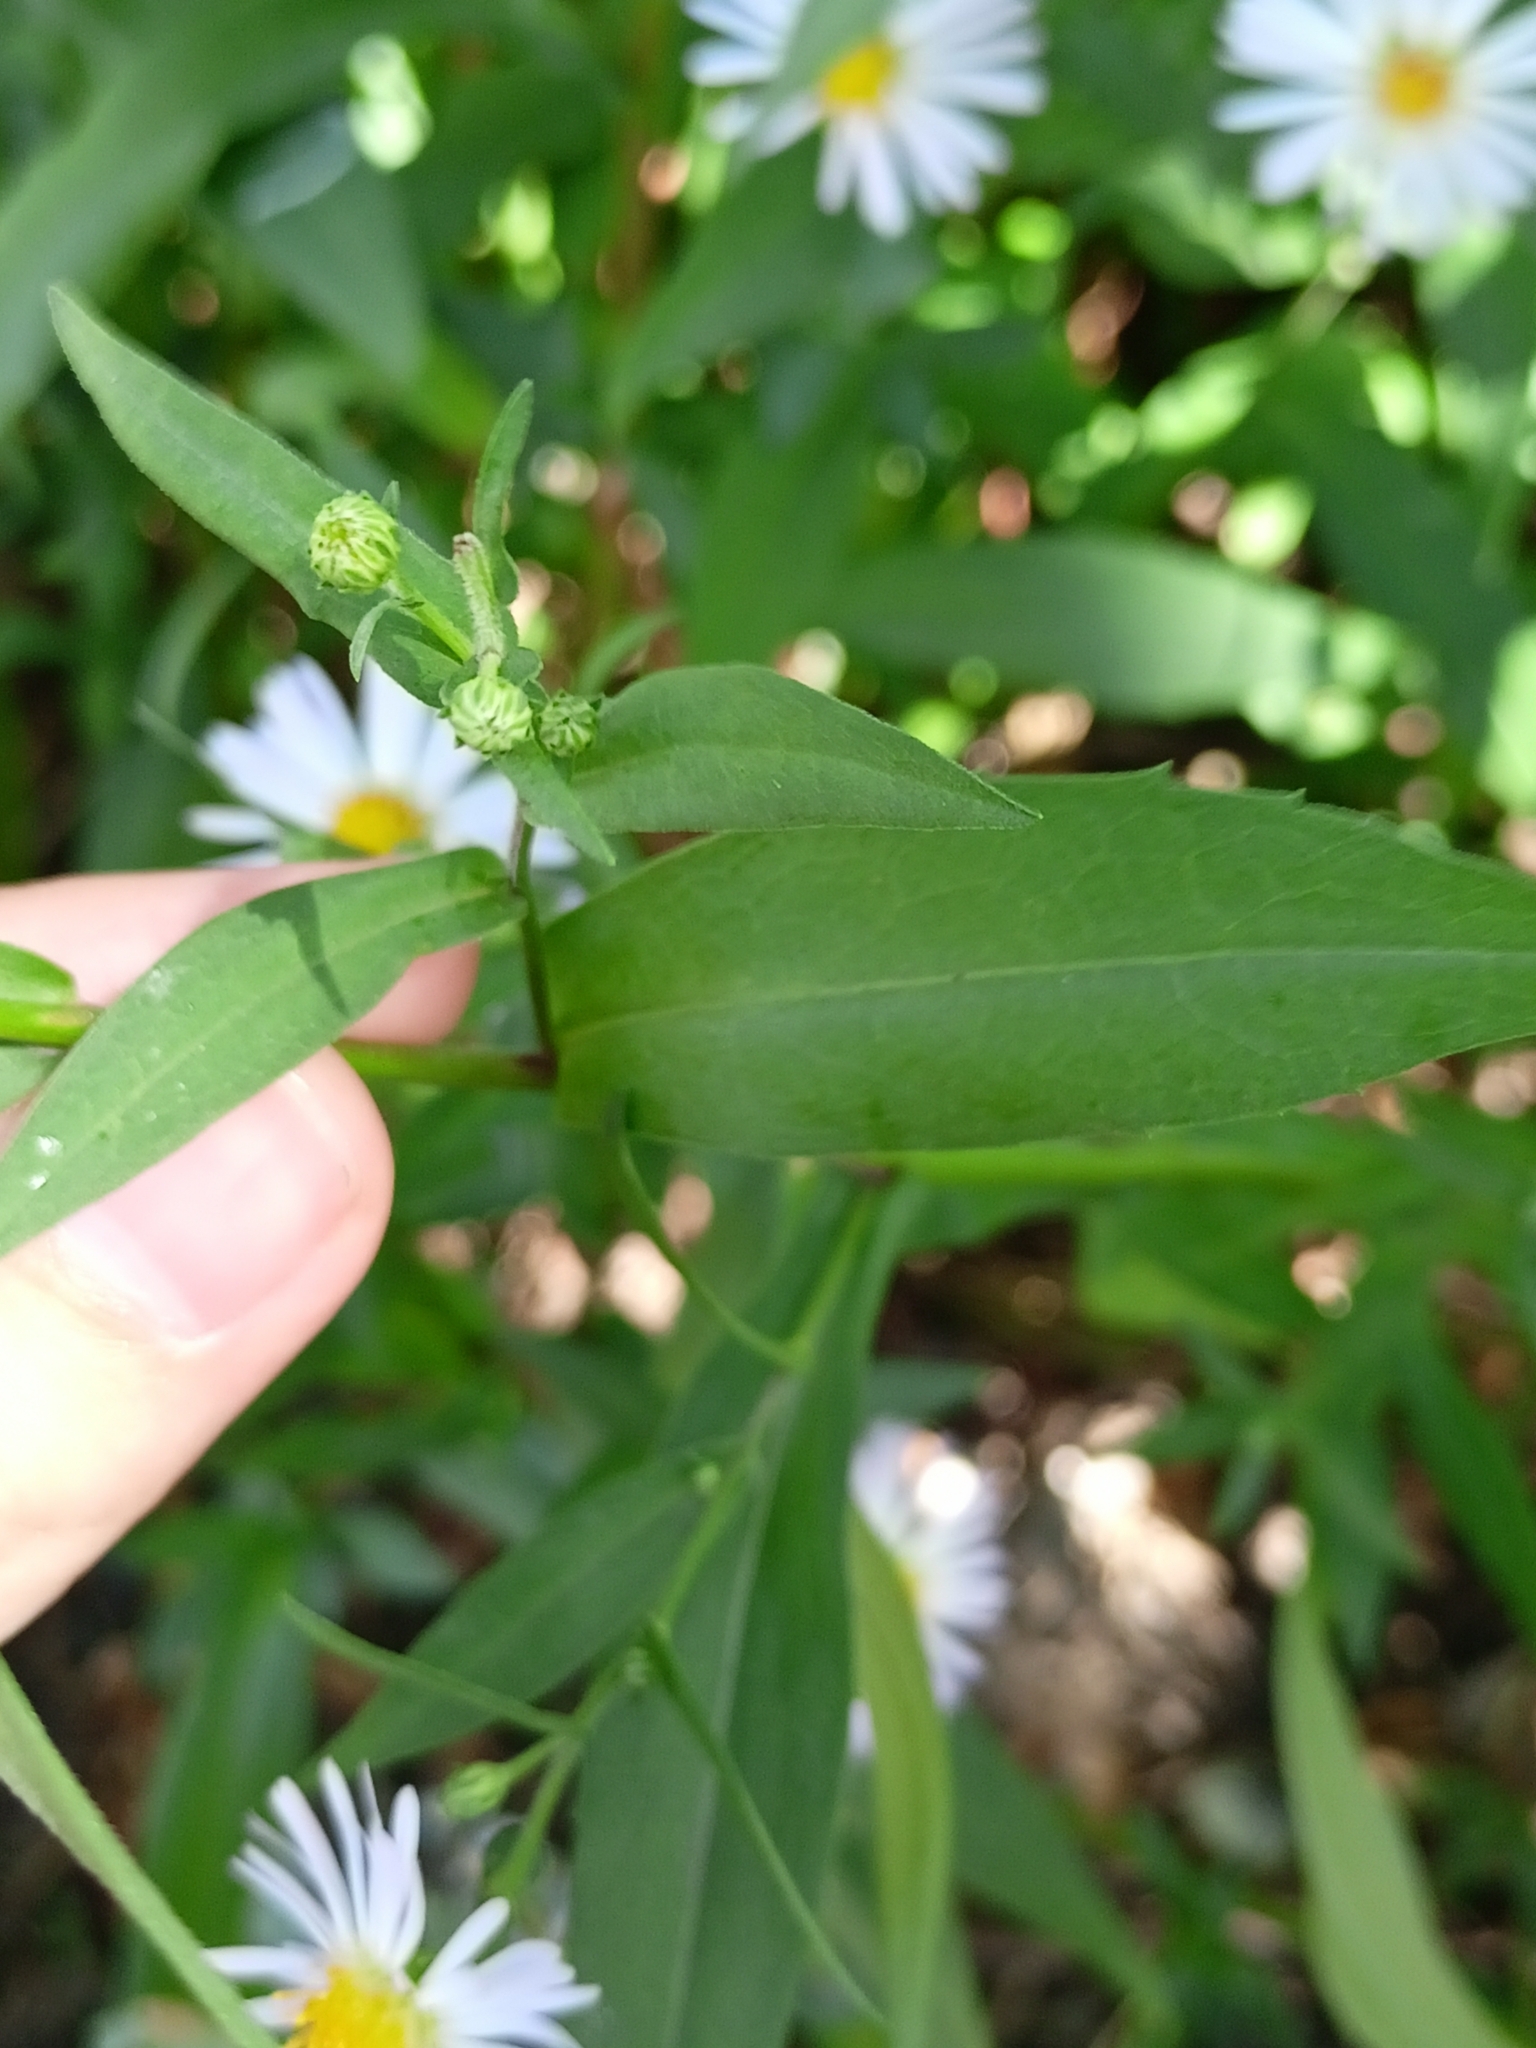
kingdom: Plantae
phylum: Tracheophyta
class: Magnoliopsida
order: Asterales
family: Asteraceae
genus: Symphyotrichum
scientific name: Symphyotrichum lanceolatum
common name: Panicled aster
